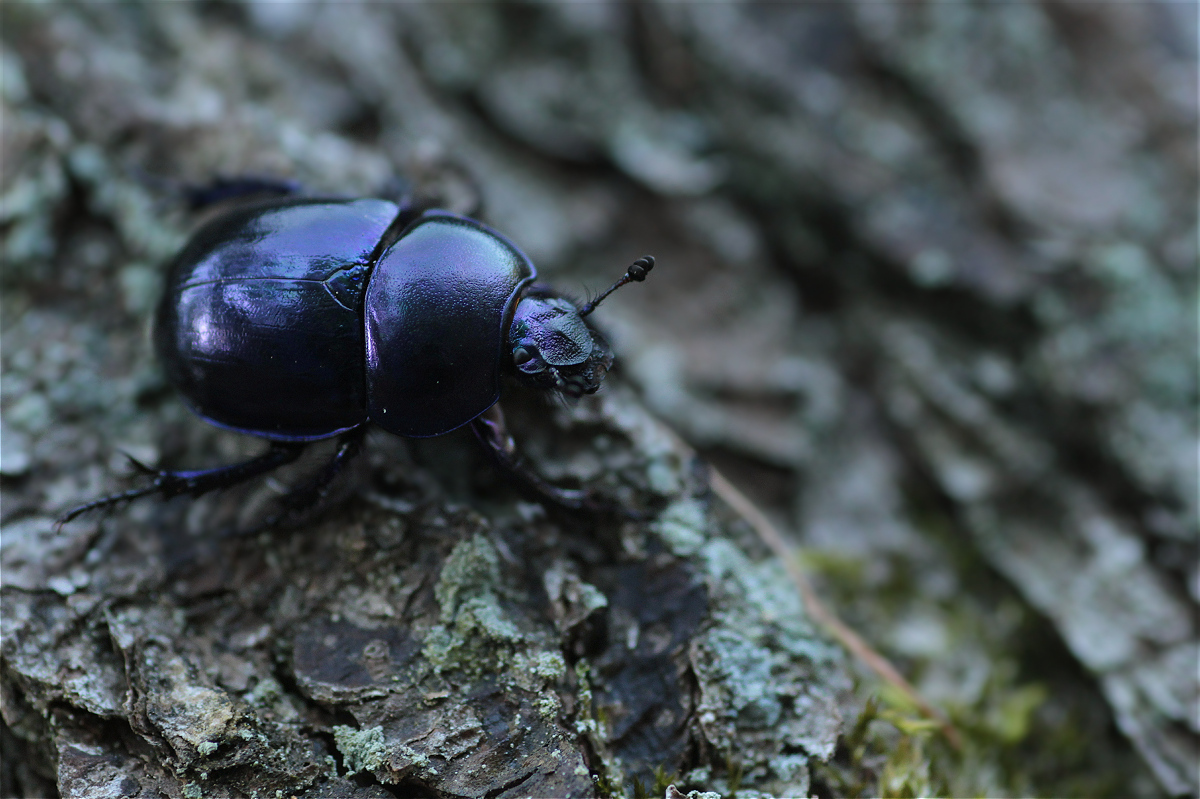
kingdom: Animalia
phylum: Arthropoda
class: Insecta
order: Coleoptera
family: Geotrupidae
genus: Trypocopris
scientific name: Trypocopris vernalis
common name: Spring dumbledor
